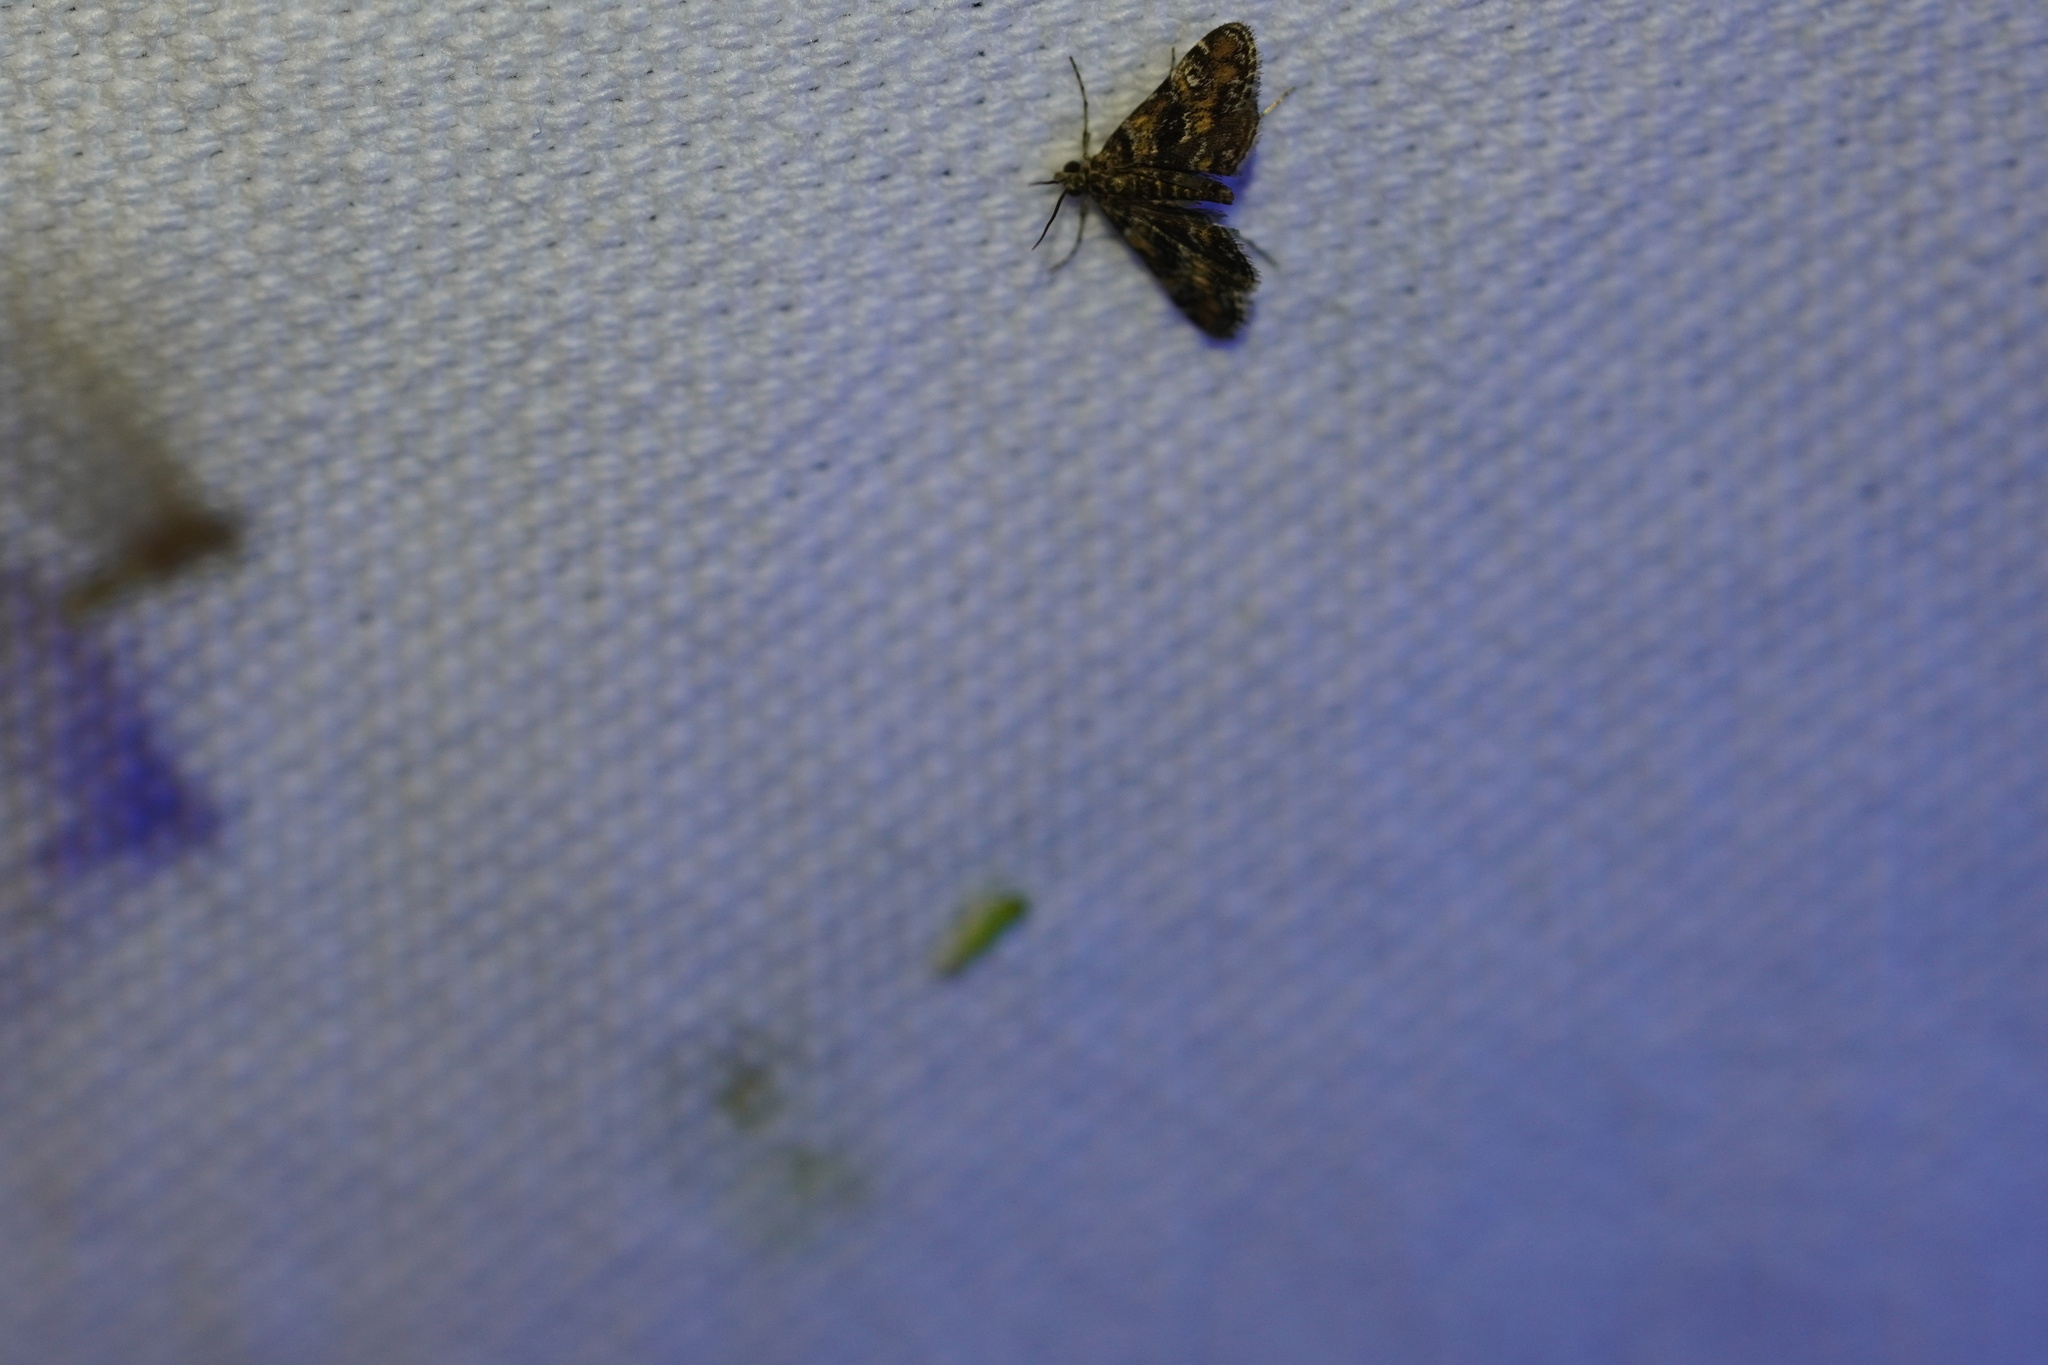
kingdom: Animalia
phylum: Arthropoda
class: Insecta
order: Lepidoptera
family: Crambidae
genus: Elophila
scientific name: Elophila obliteralis
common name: Waterlily leafcutter moth
